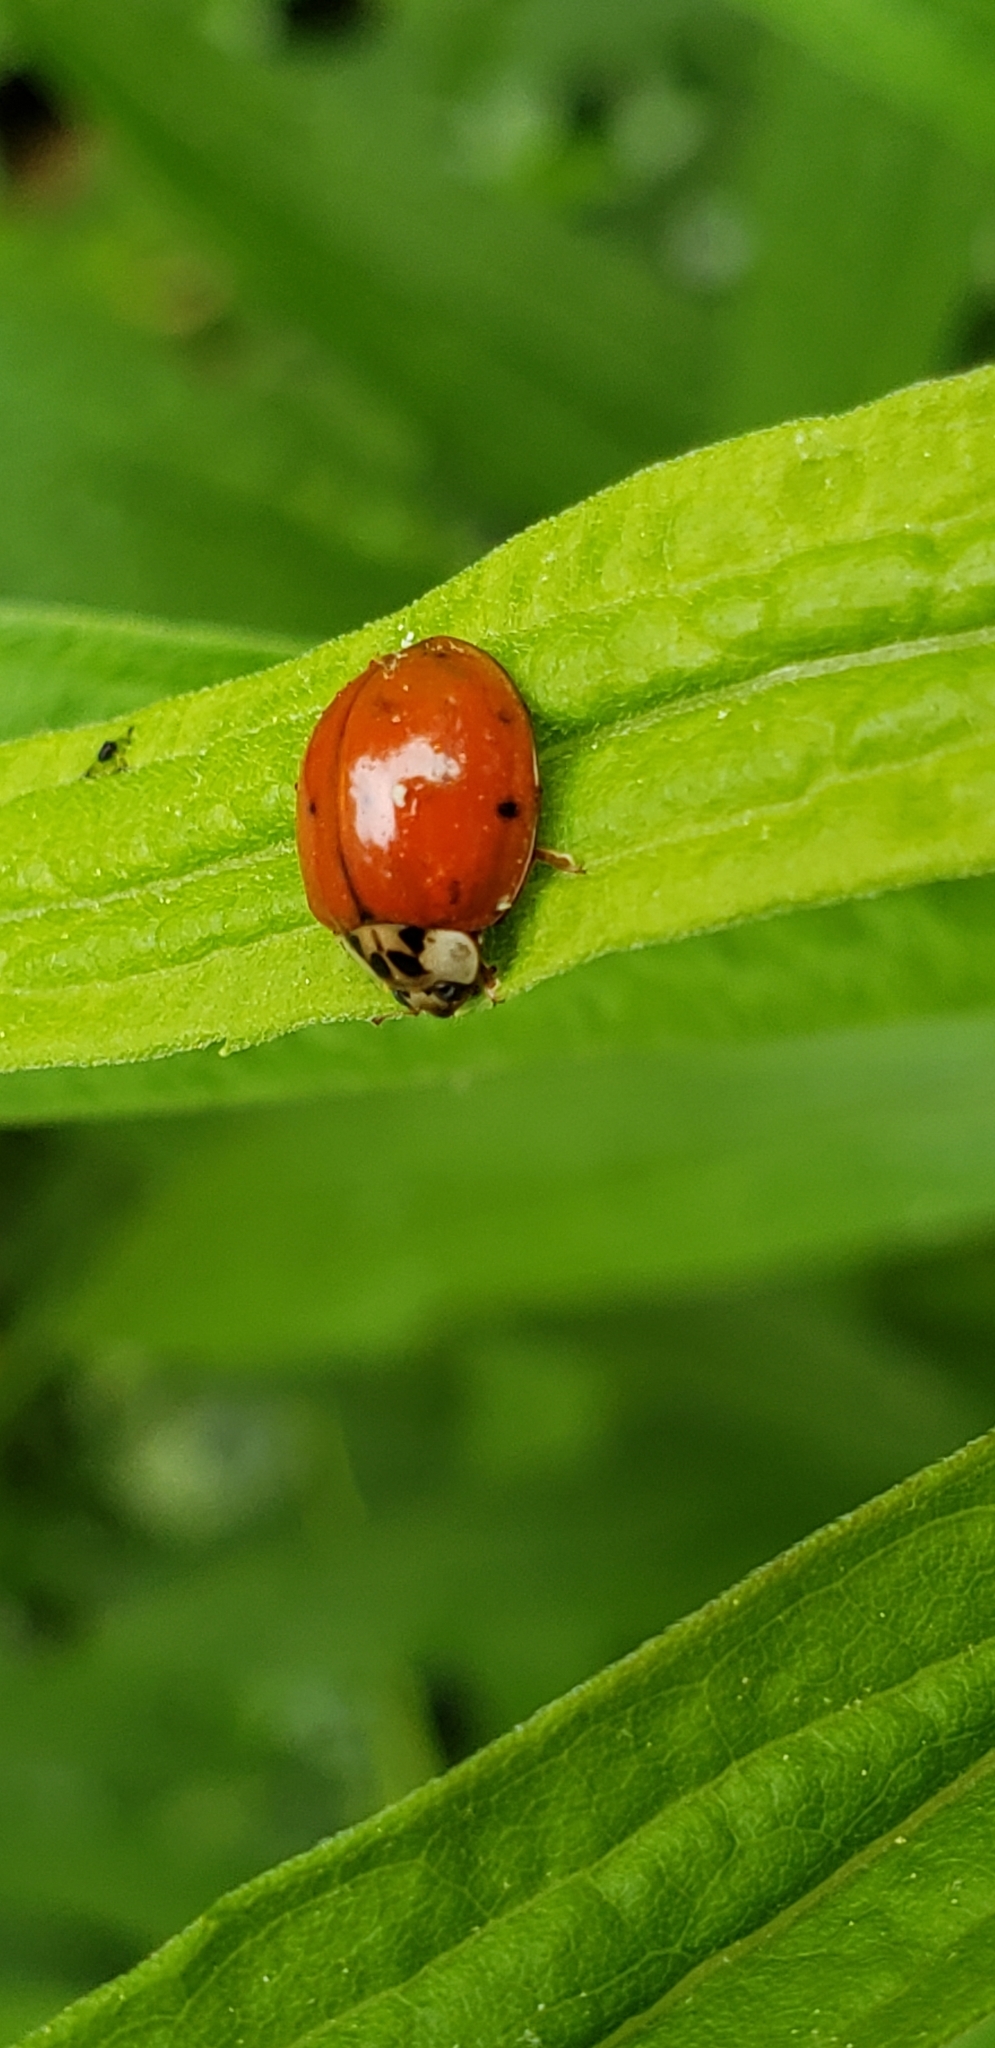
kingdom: Animalia
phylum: Arthropoda
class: Insecta
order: Coleoptera
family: Coccinellidae
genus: Harmonia
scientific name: Harmonia axyridis
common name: Harlequin ladybird
